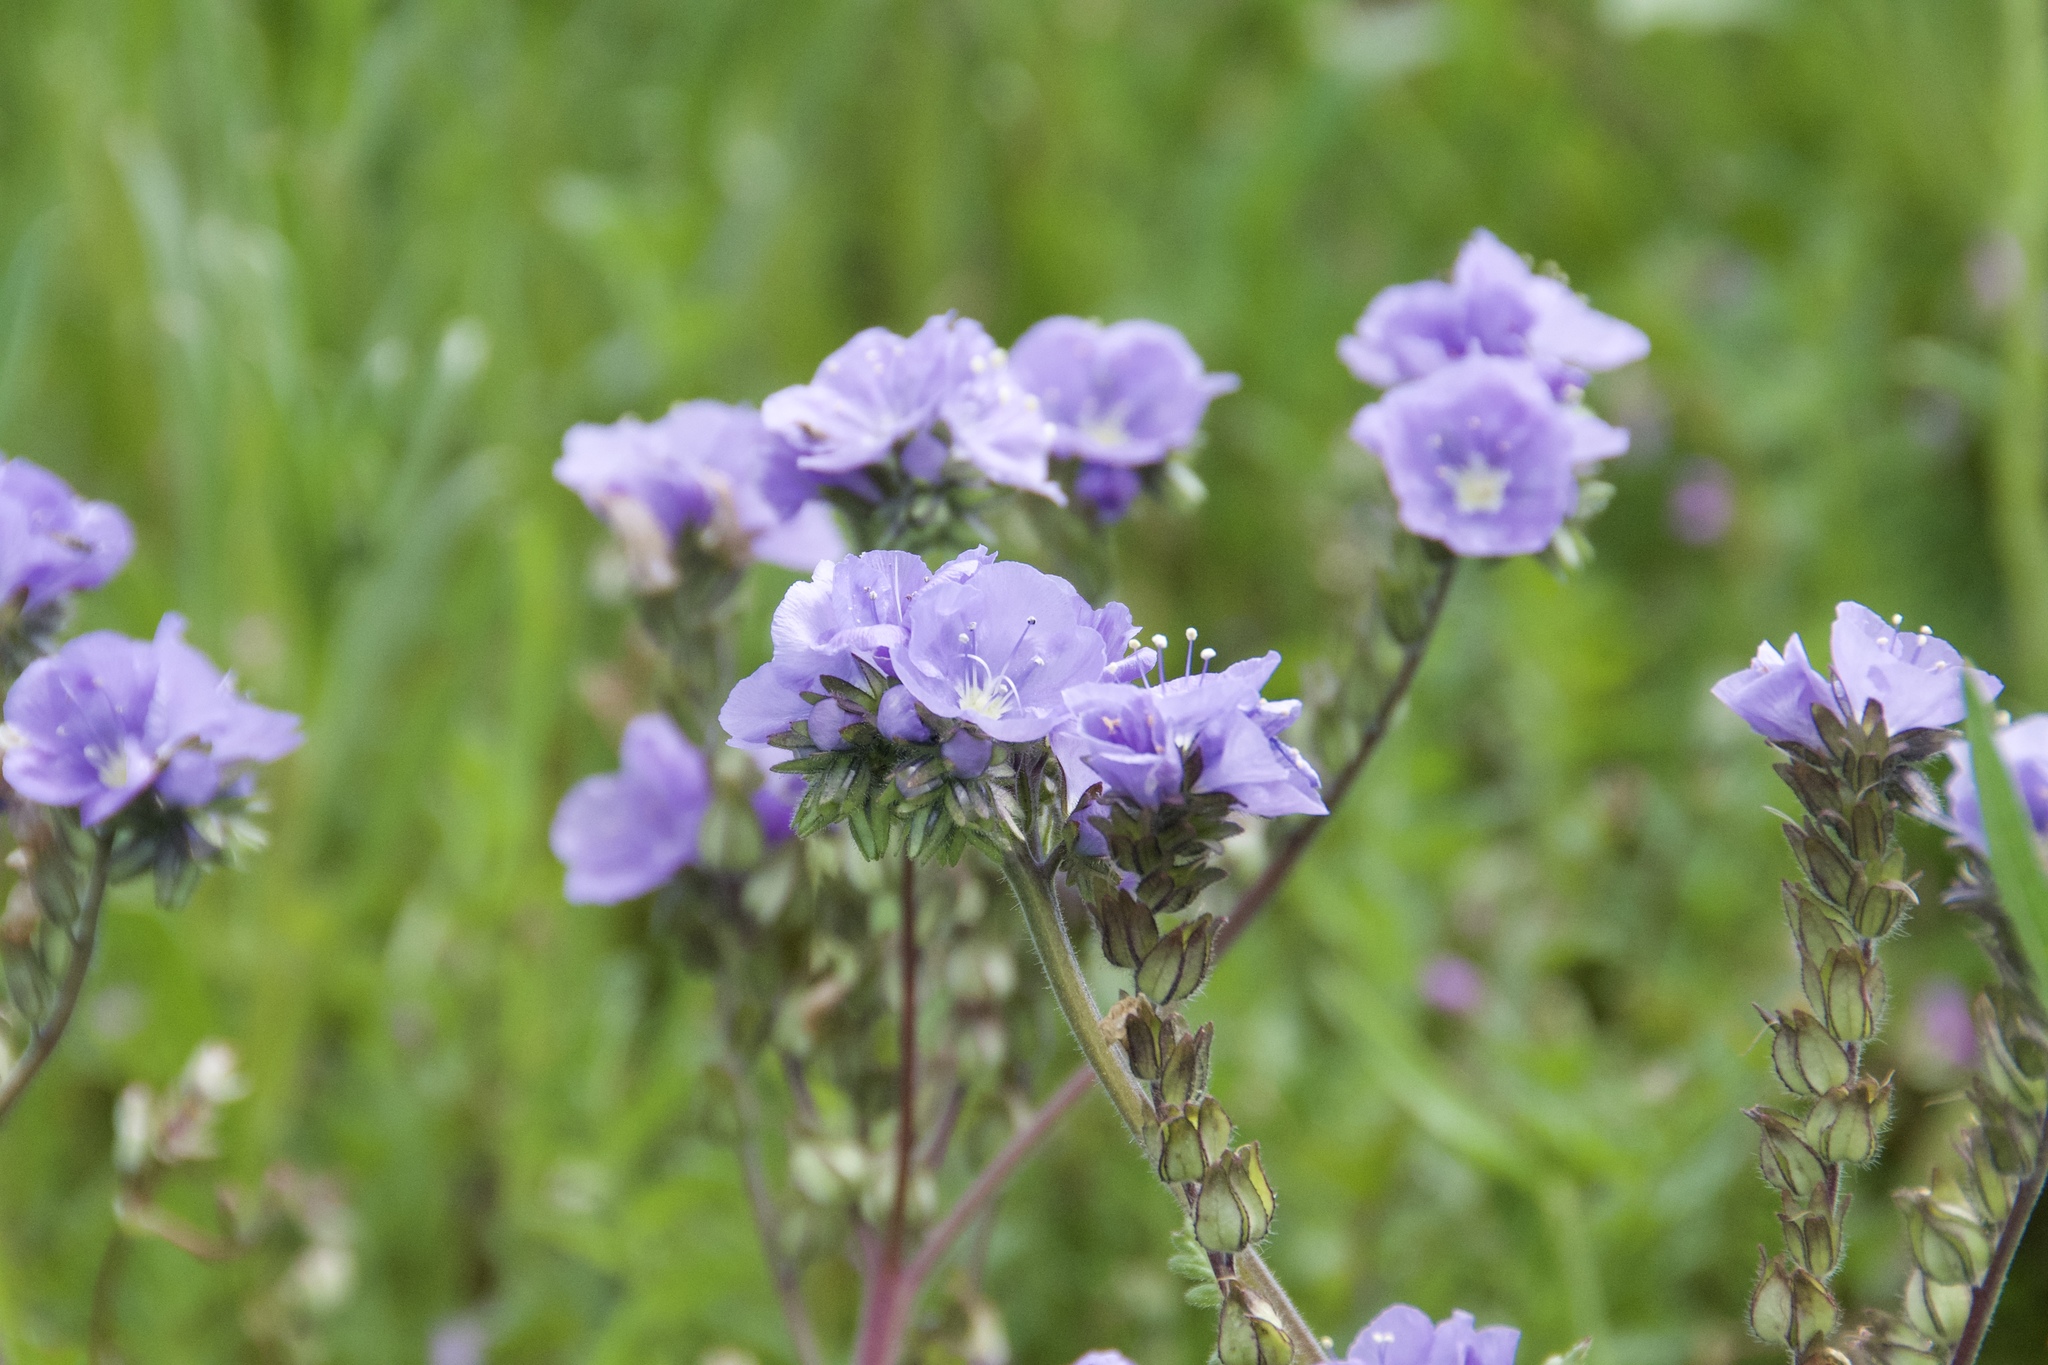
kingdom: Plantae
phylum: Tracheophyta
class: Magnoliopsida
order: Boraginales
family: Hydrophyllaceae
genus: Phacelia
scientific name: Phacelia ciliata
